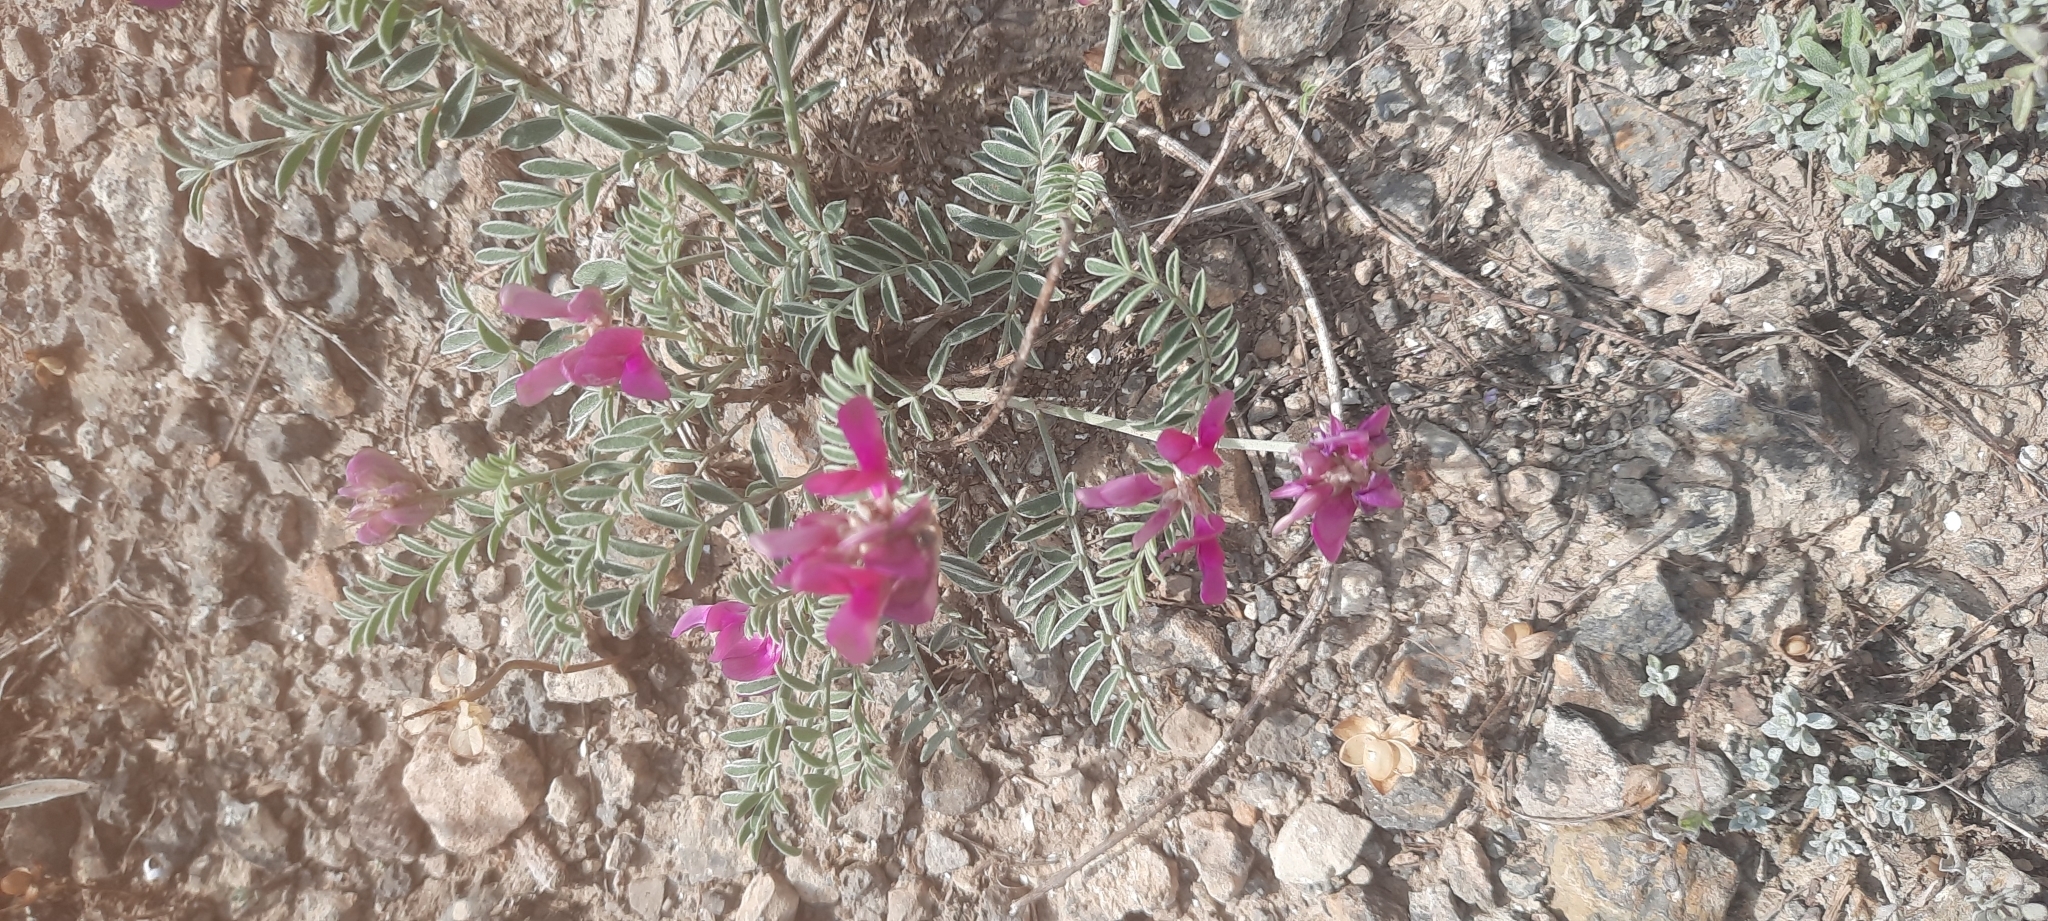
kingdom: Plantae
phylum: Tracheophyta
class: Magnoliopsida
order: Fabales
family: Fabaceae
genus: Hedysarum
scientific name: Hedysarum tauricum
